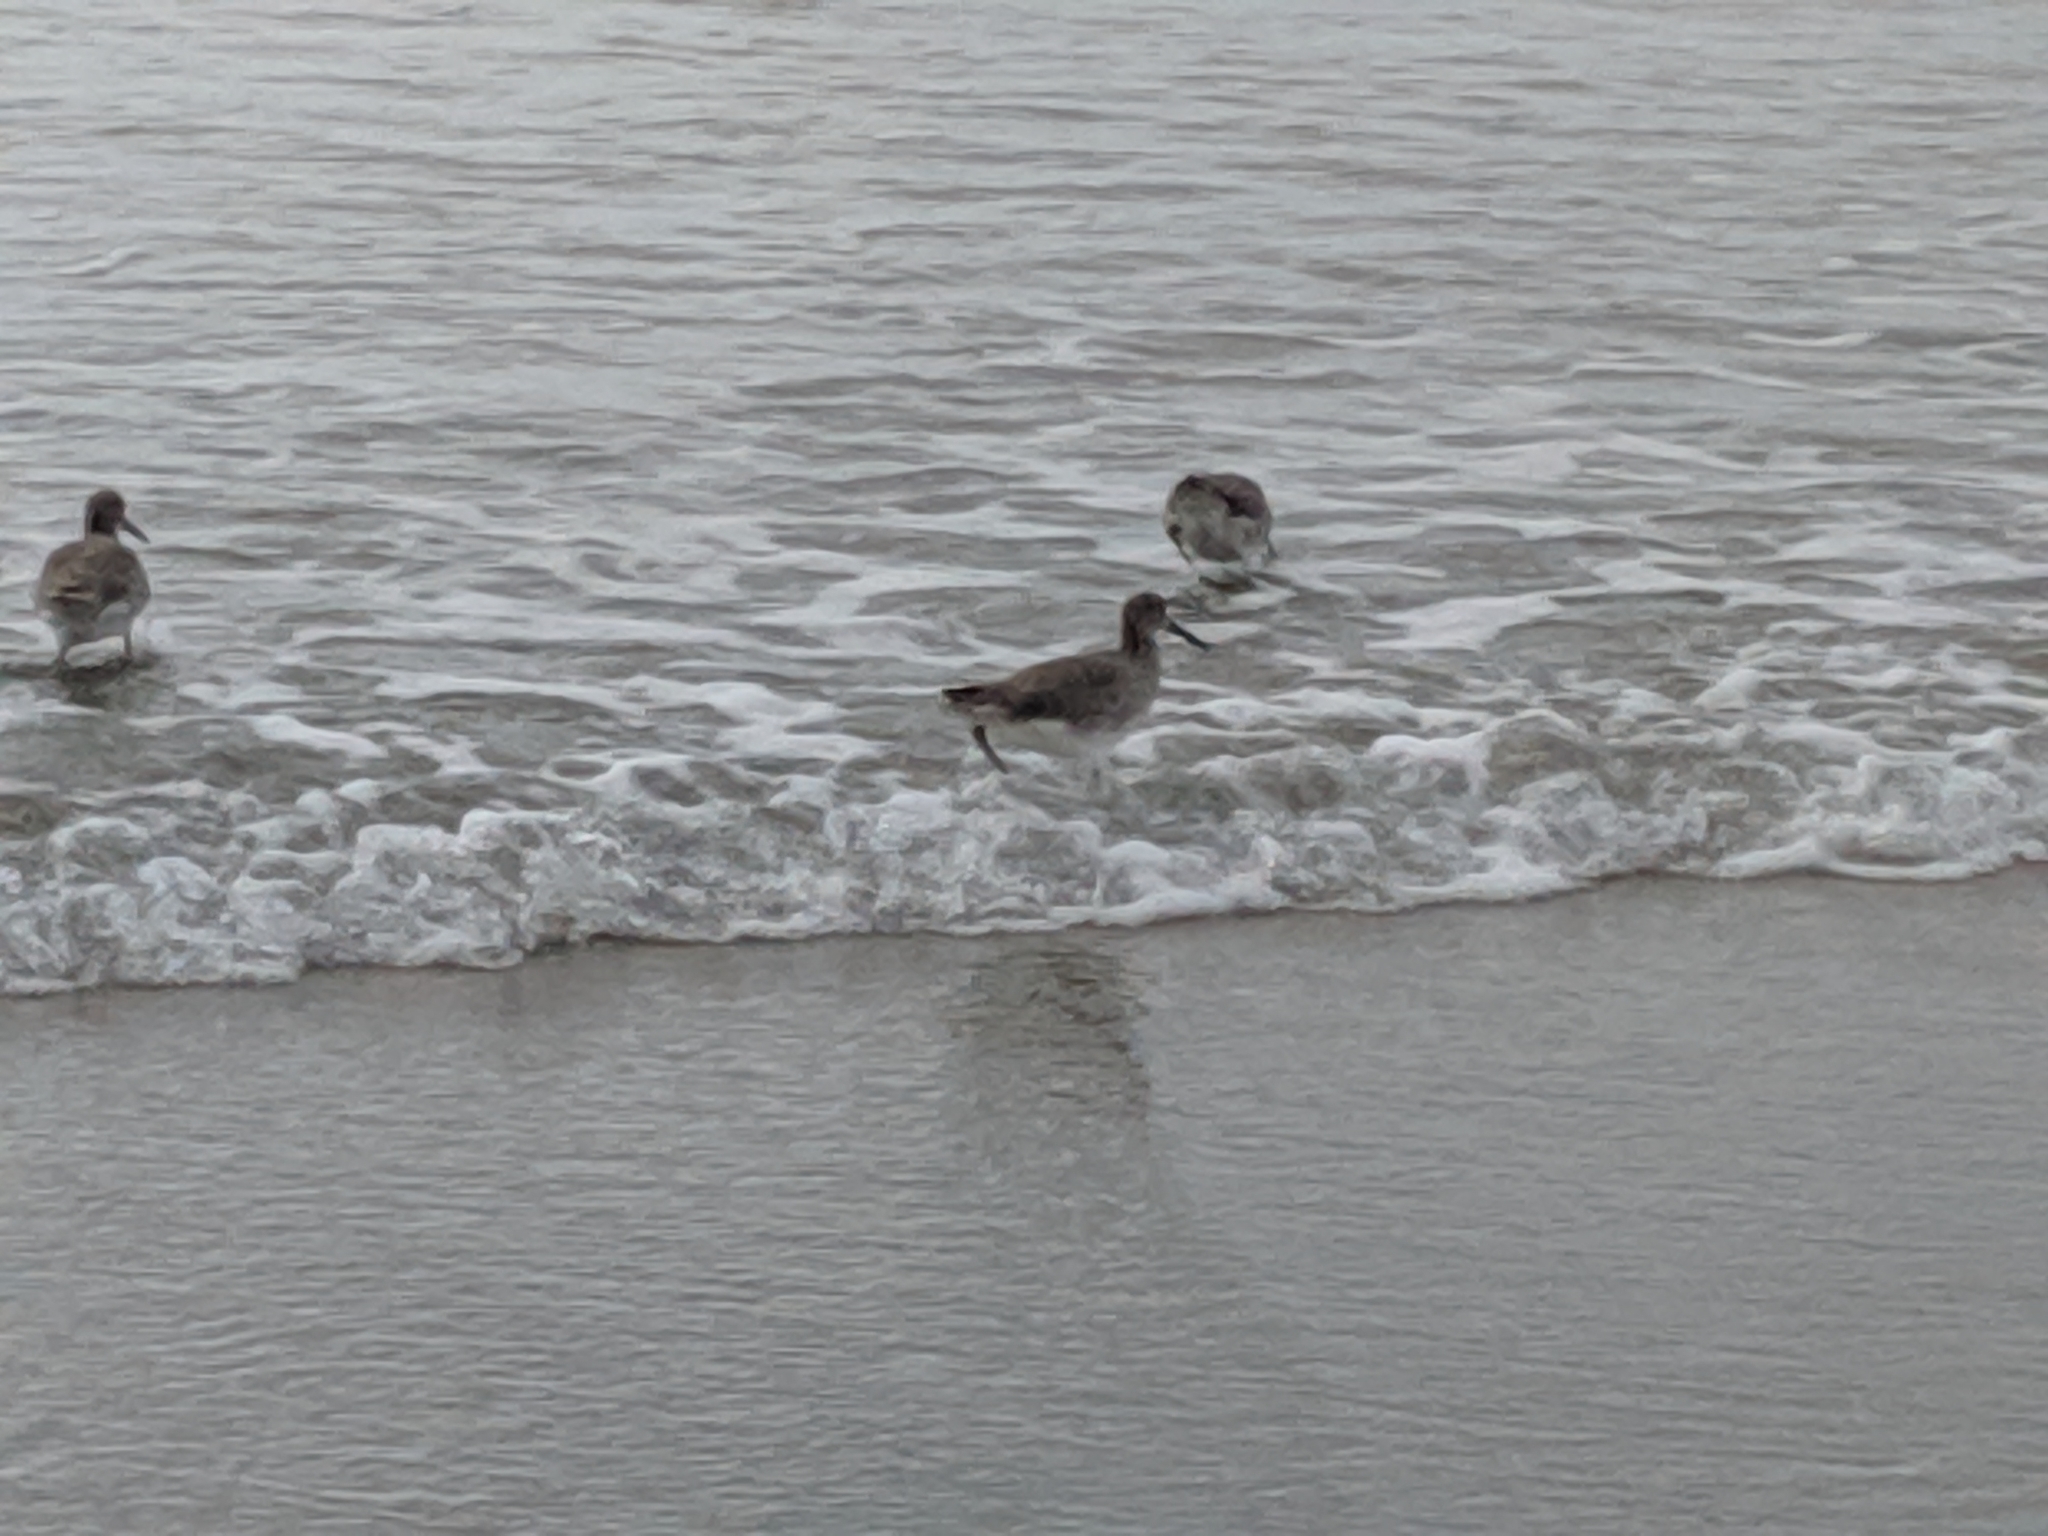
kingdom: Animalia
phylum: Chordata
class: Aves
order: Charadriiformes
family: Scolopacidae
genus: Tringa
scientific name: Tringa semipalmata
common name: Willet
